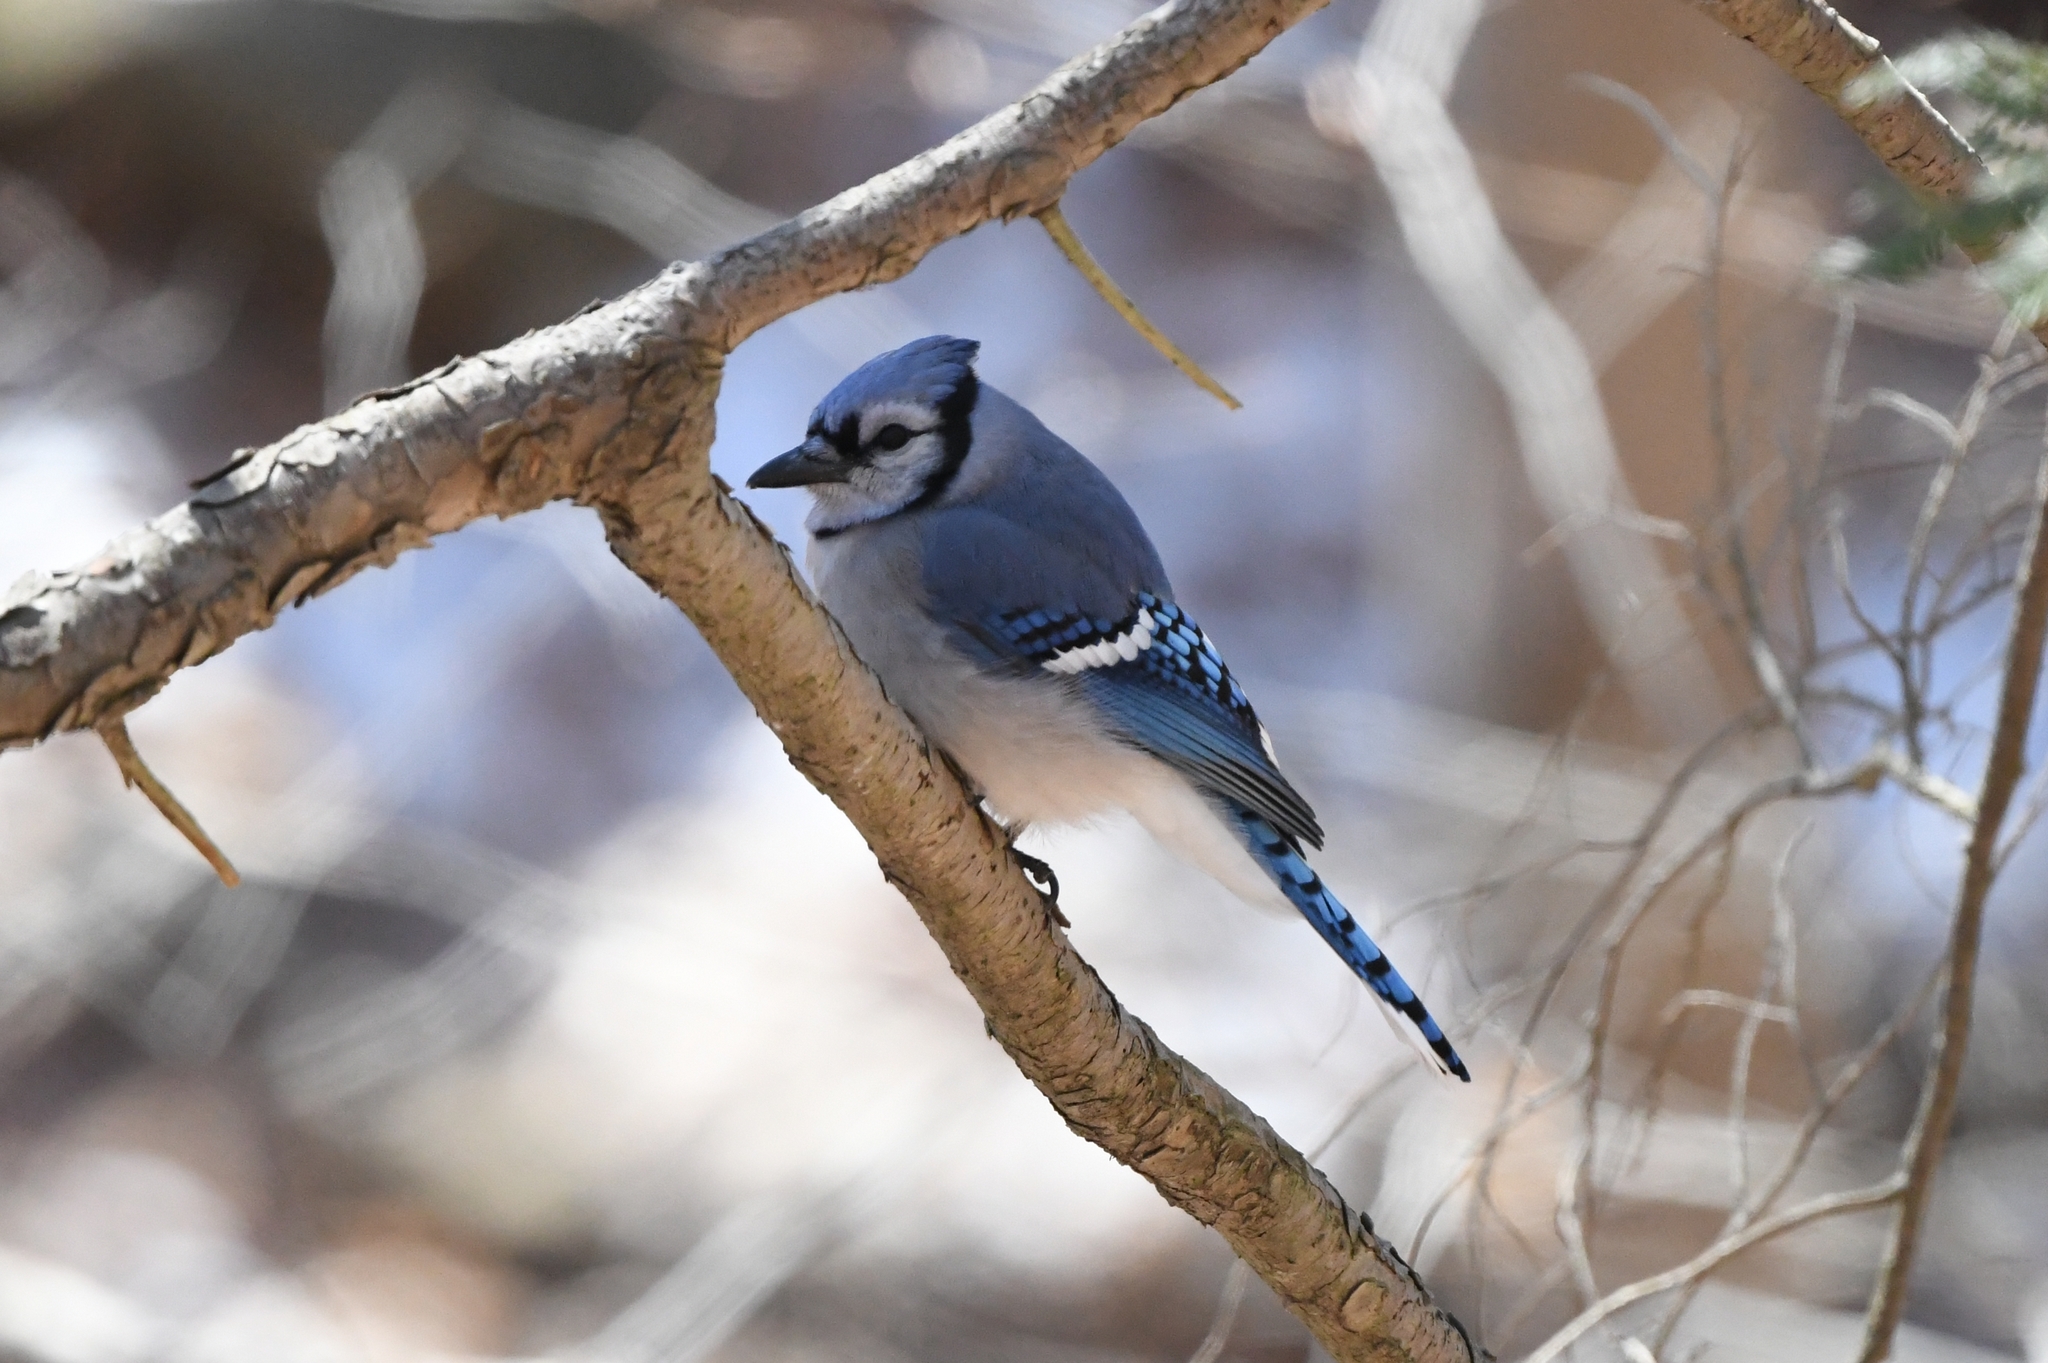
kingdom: Animalia
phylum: Chordata
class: Aves
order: Passeriformes
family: Corvidae
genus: Cyanocitta
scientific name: Cyanocitta cristata
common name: Blue jay
